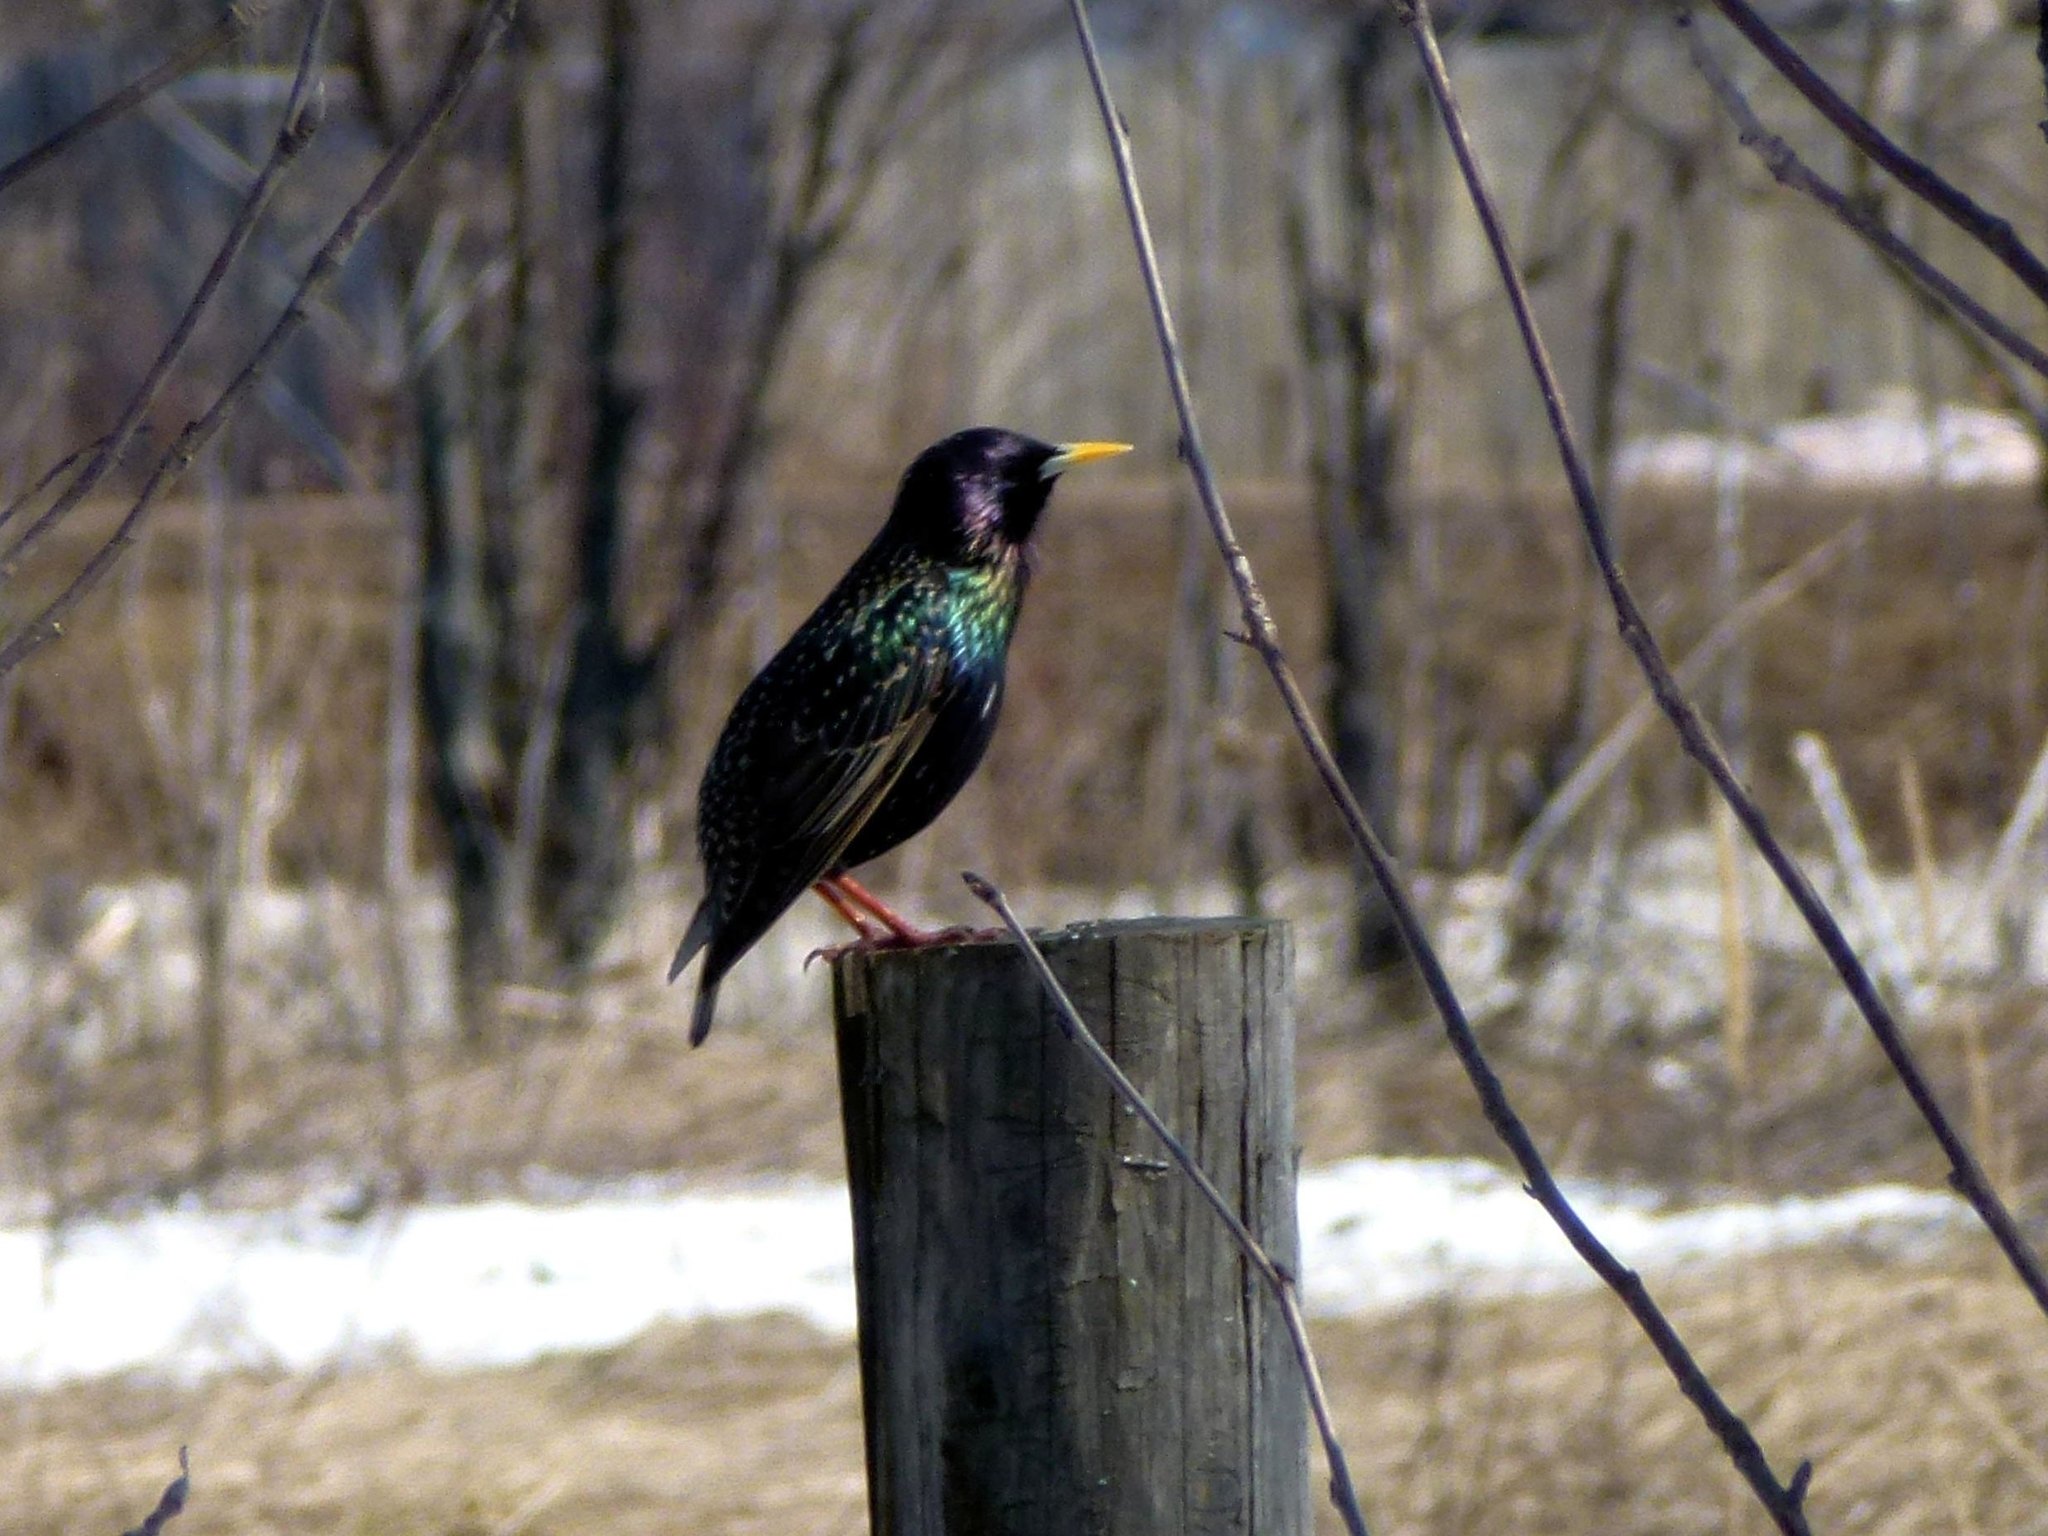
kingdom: Animalia
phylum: Chordata
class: Aves
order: Passeriformes
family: Sturnidae
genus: Sturnus
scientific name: Sturnus vulgaris
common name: Common starling
